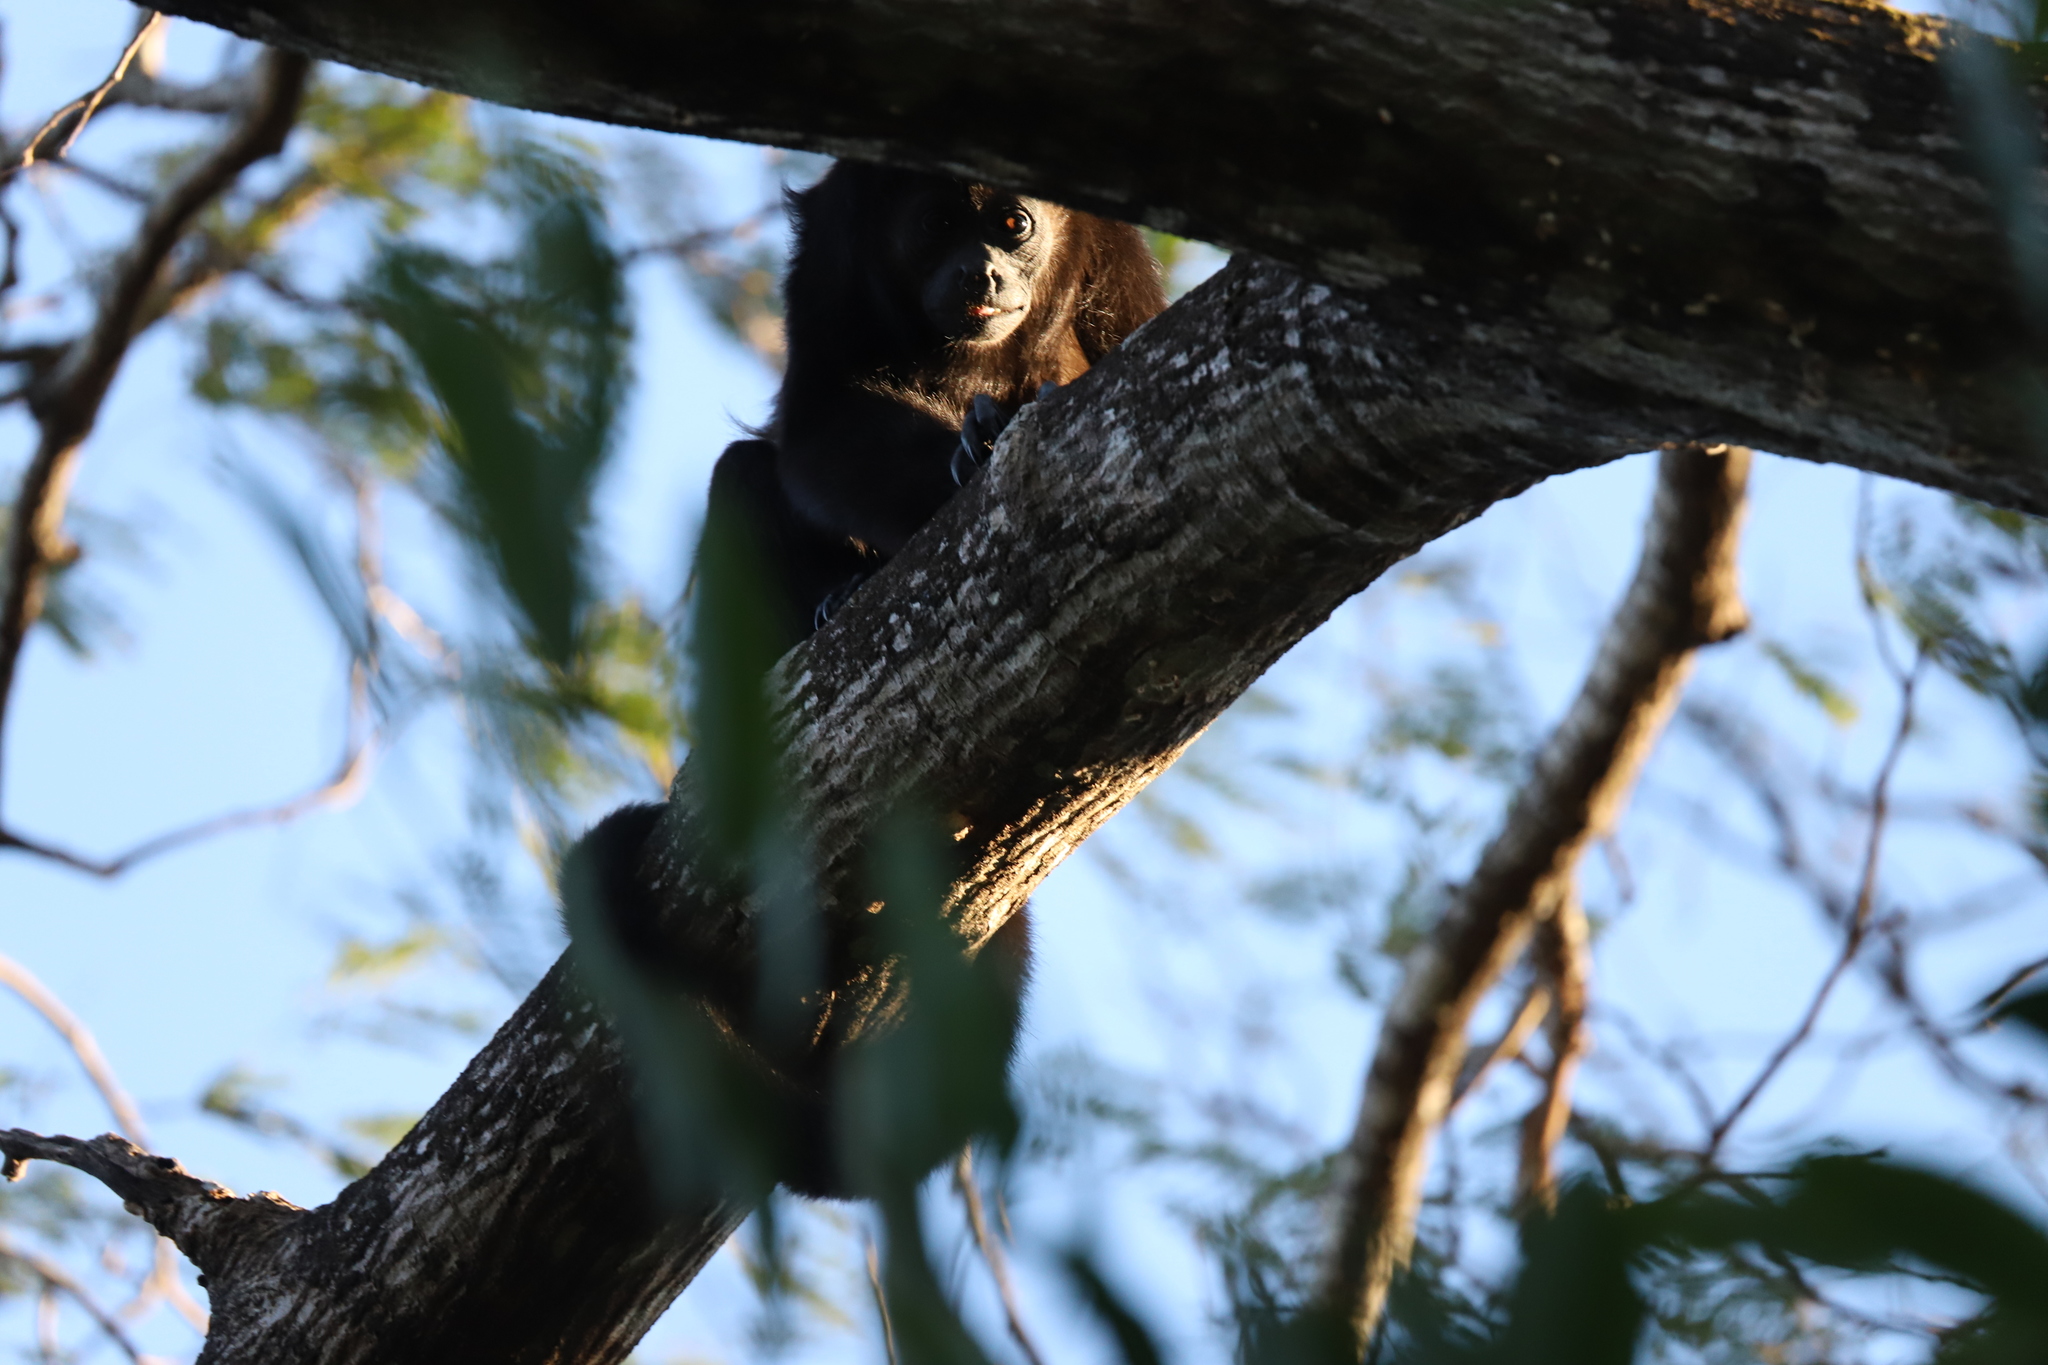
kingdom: Animalia
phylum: Chordata
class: Mammalia
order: Primates
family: Atelidae
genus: Alouatta
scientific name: Alouatta palliata
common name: Mantled howler
